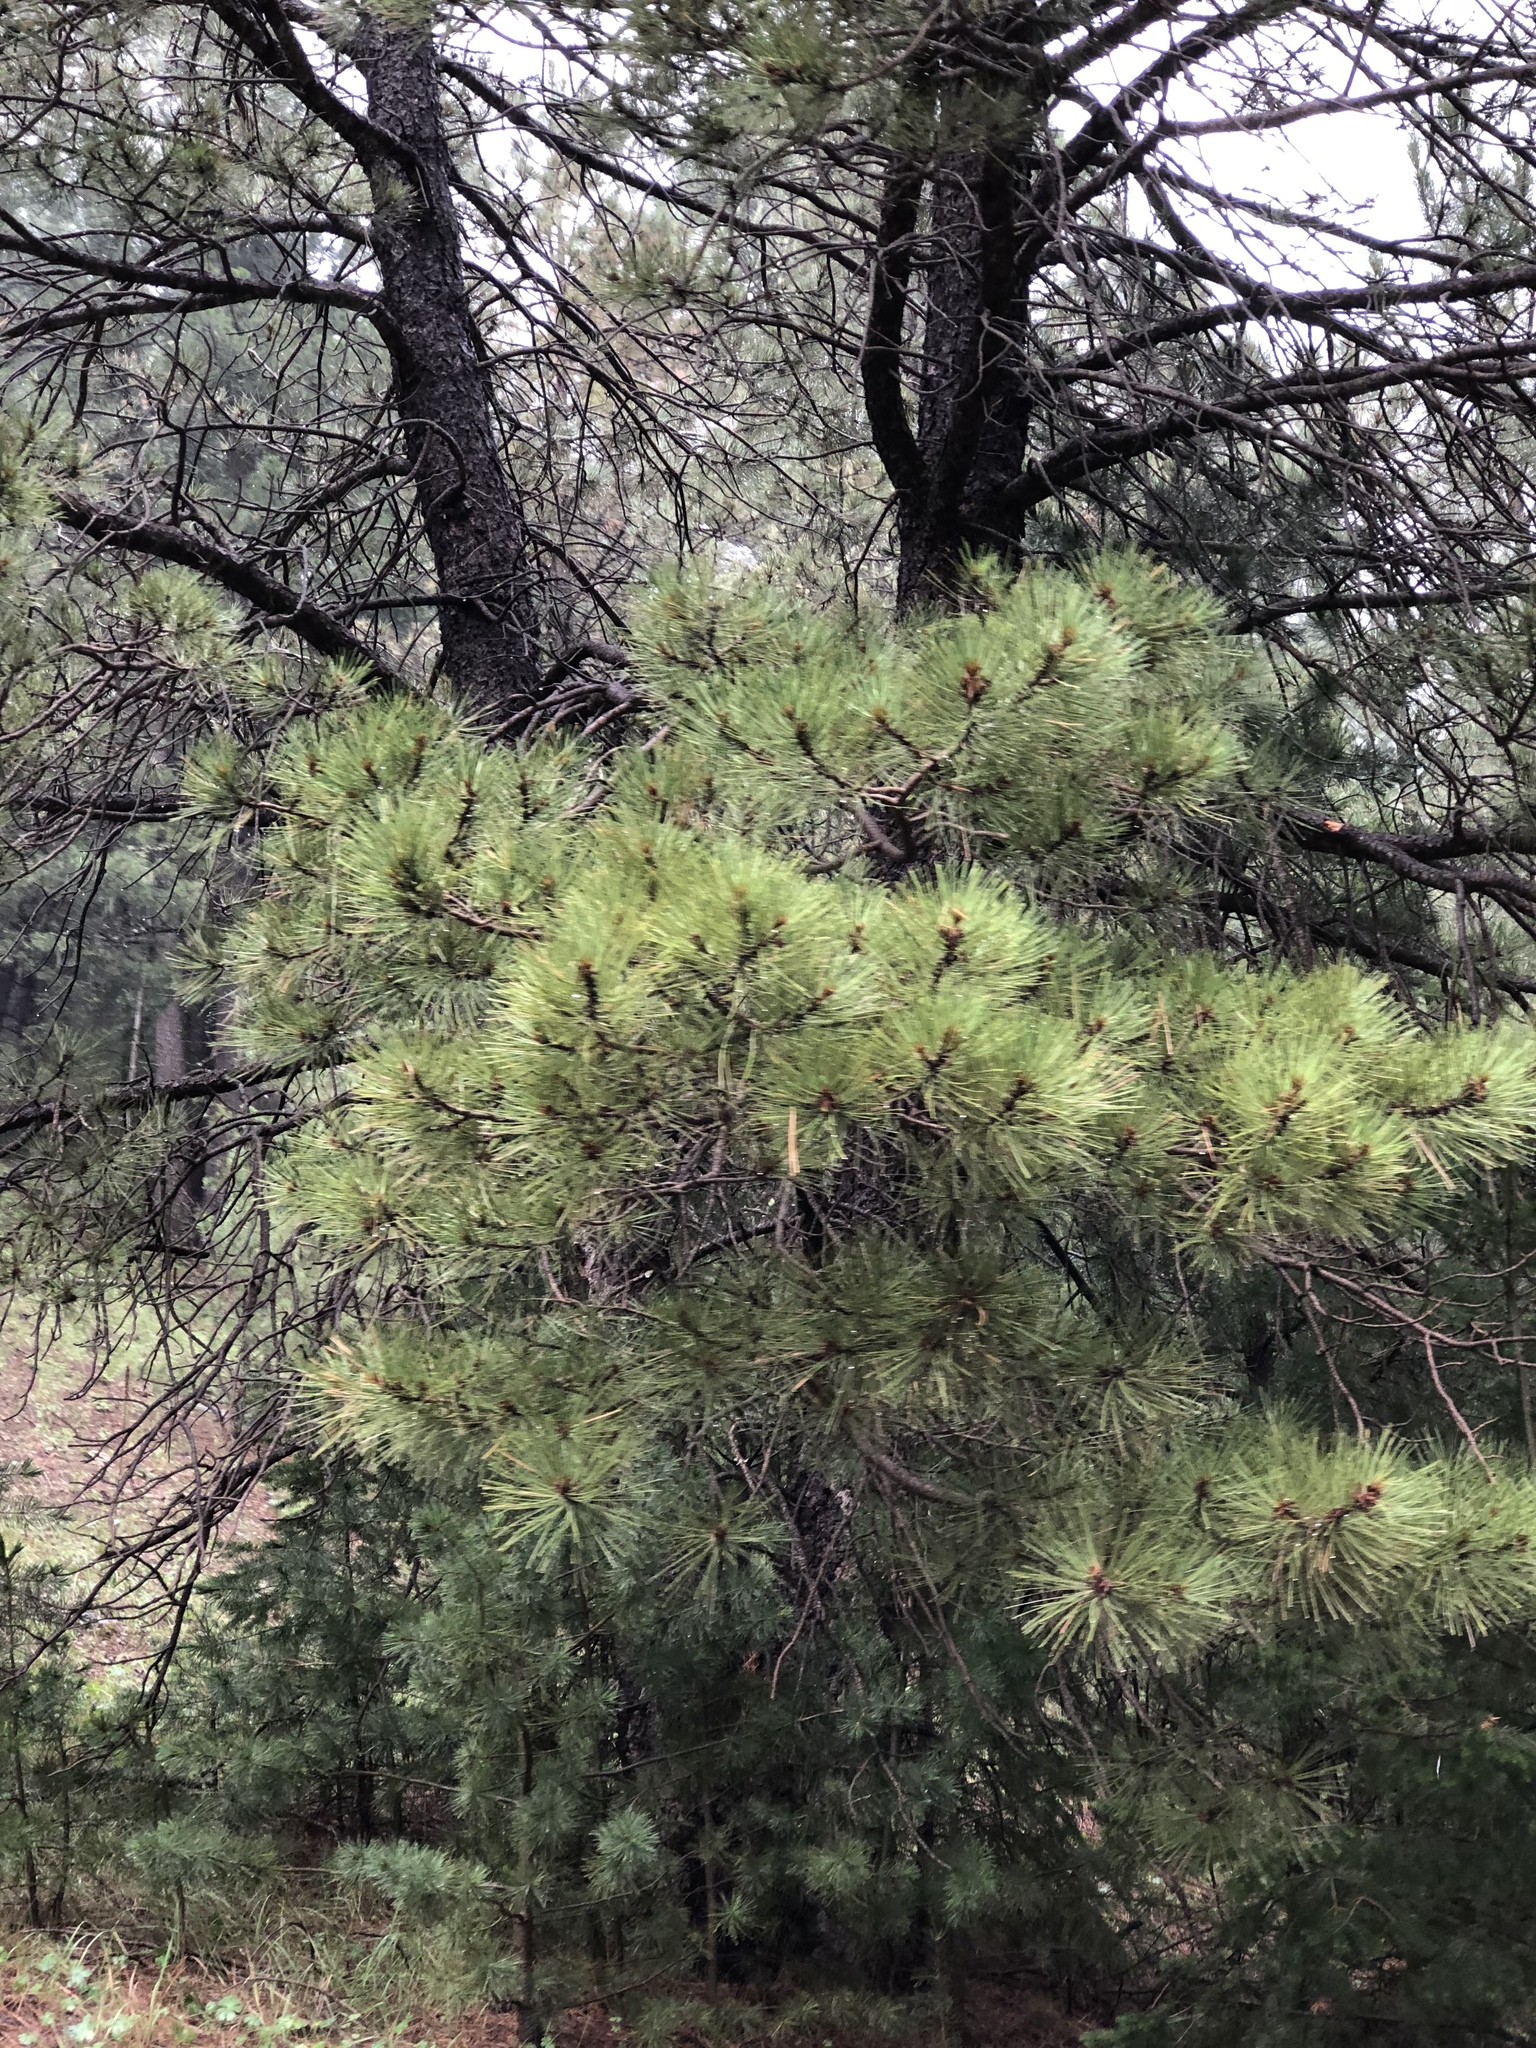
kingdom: Plantae
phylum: Tracheophyta
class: Pinopsida
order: Pinales
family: Pinaceae
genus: Pinus
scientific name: Pinus ponderosa
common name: Western yellow-pine
